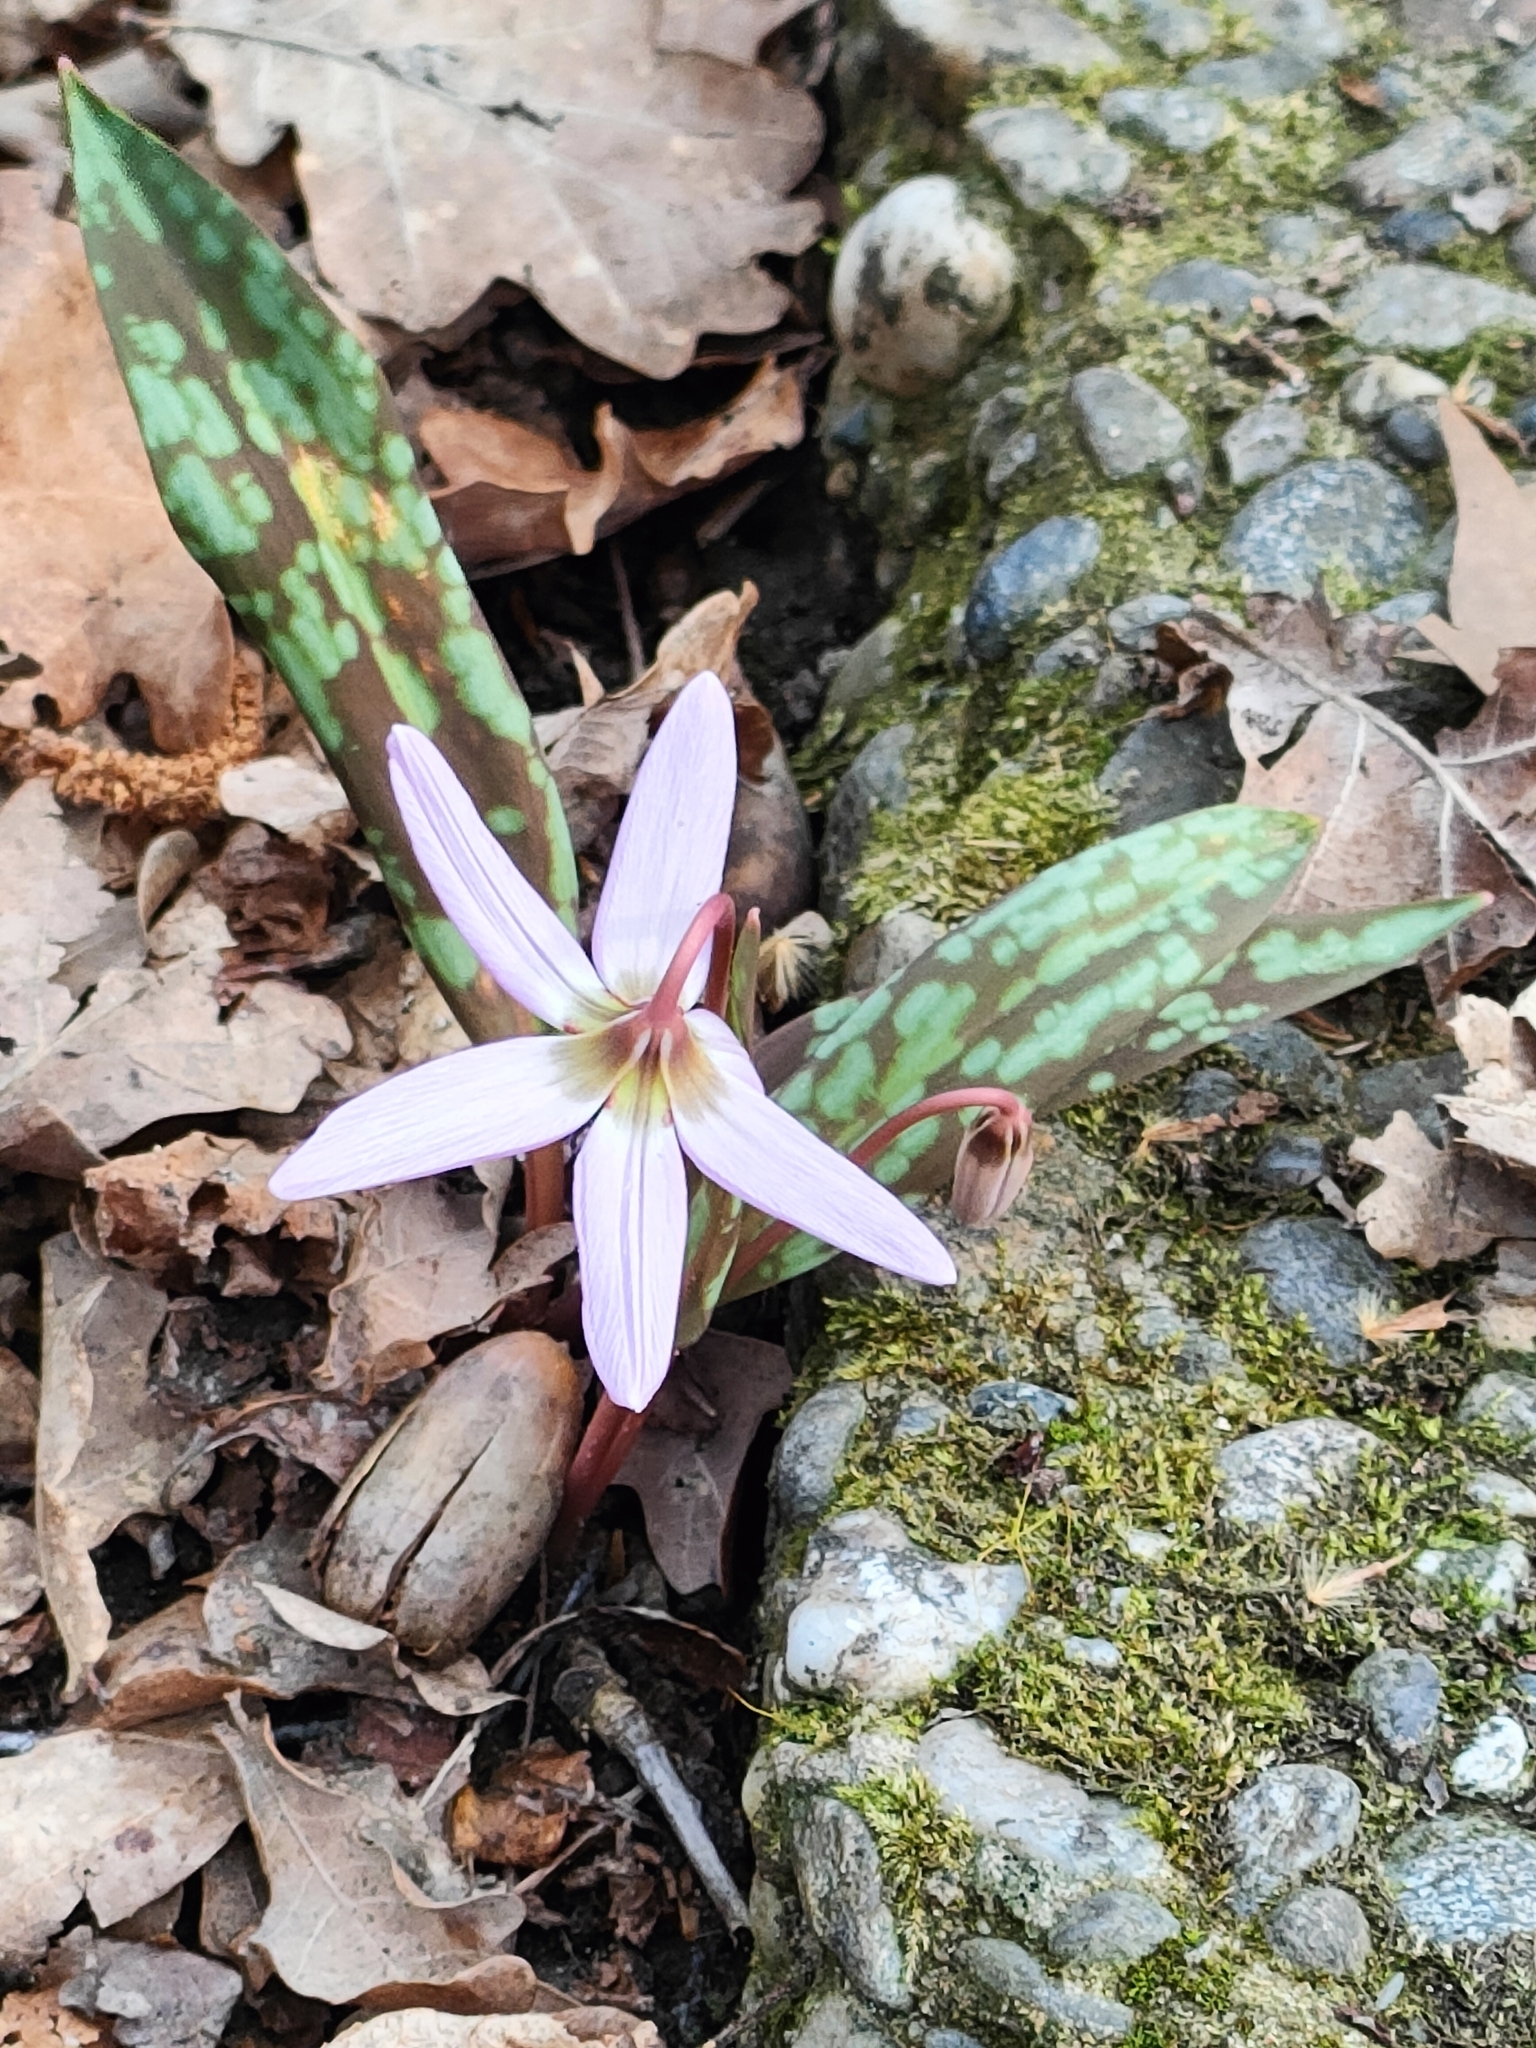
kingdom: Plantae
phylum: Tracheophyta
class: Liliopsida
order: Liliales
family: Liliaceae
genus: Erythronium
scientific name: Erythronium dens-canis
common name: Dog's-tooth-violet
